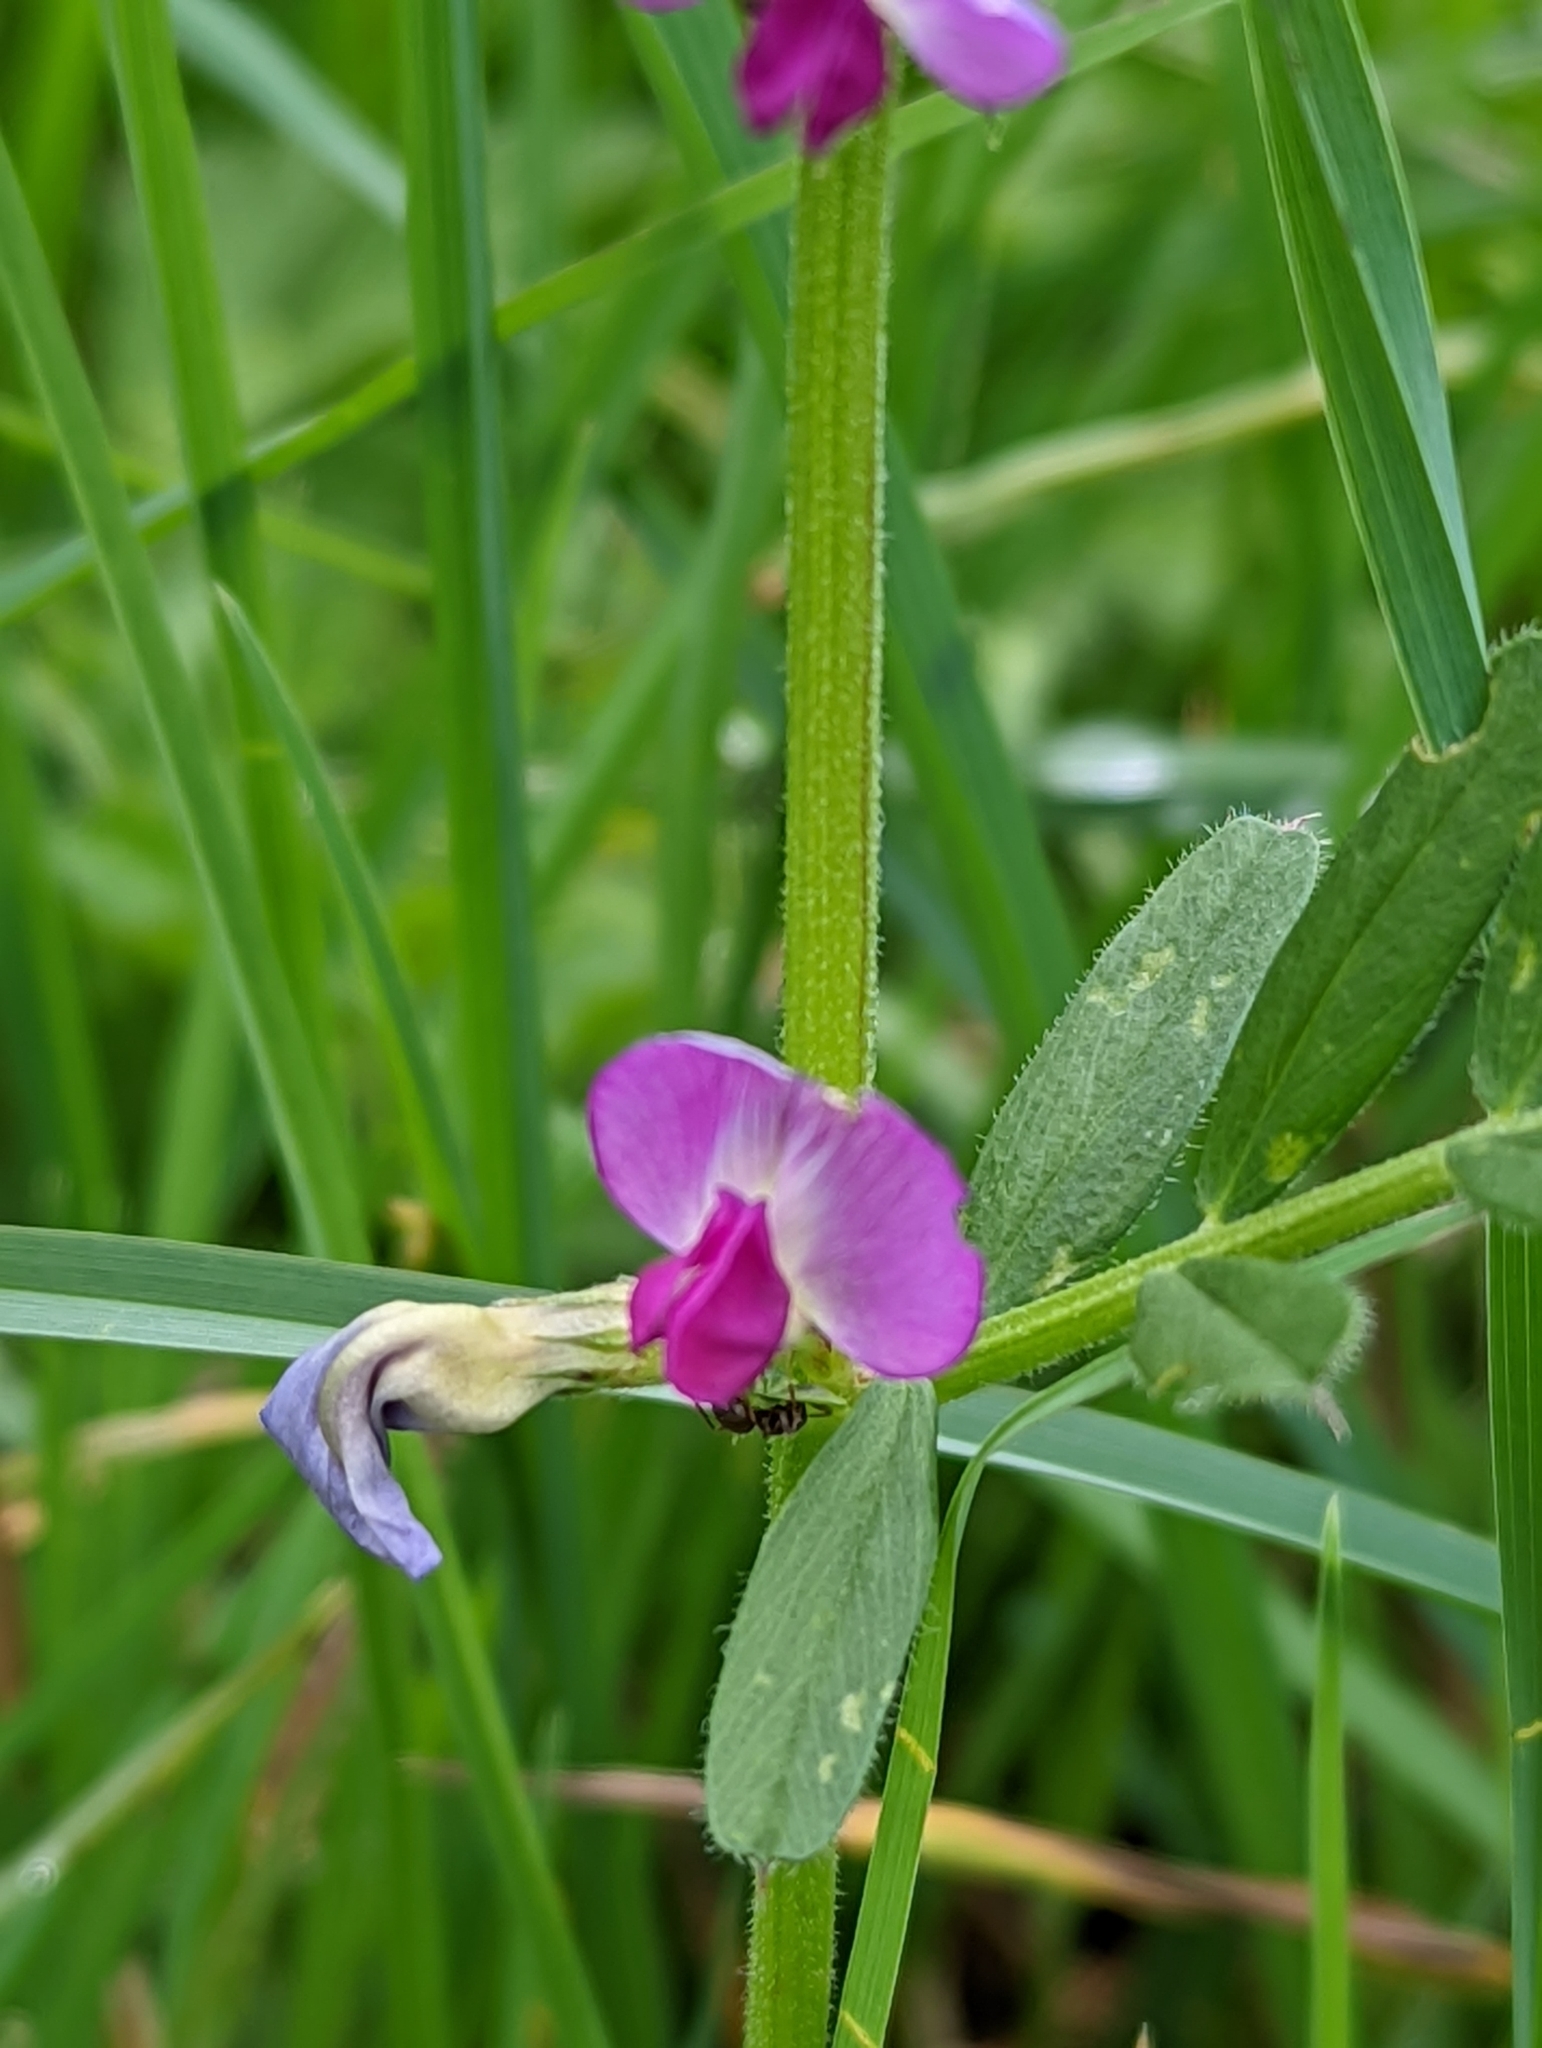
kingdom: Plantae
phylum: Tracheophyta
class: Magnoliopsida
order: Fabales
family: Fabaceae
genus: Vicia
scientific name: Vicia sativa
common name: Garden vetch
